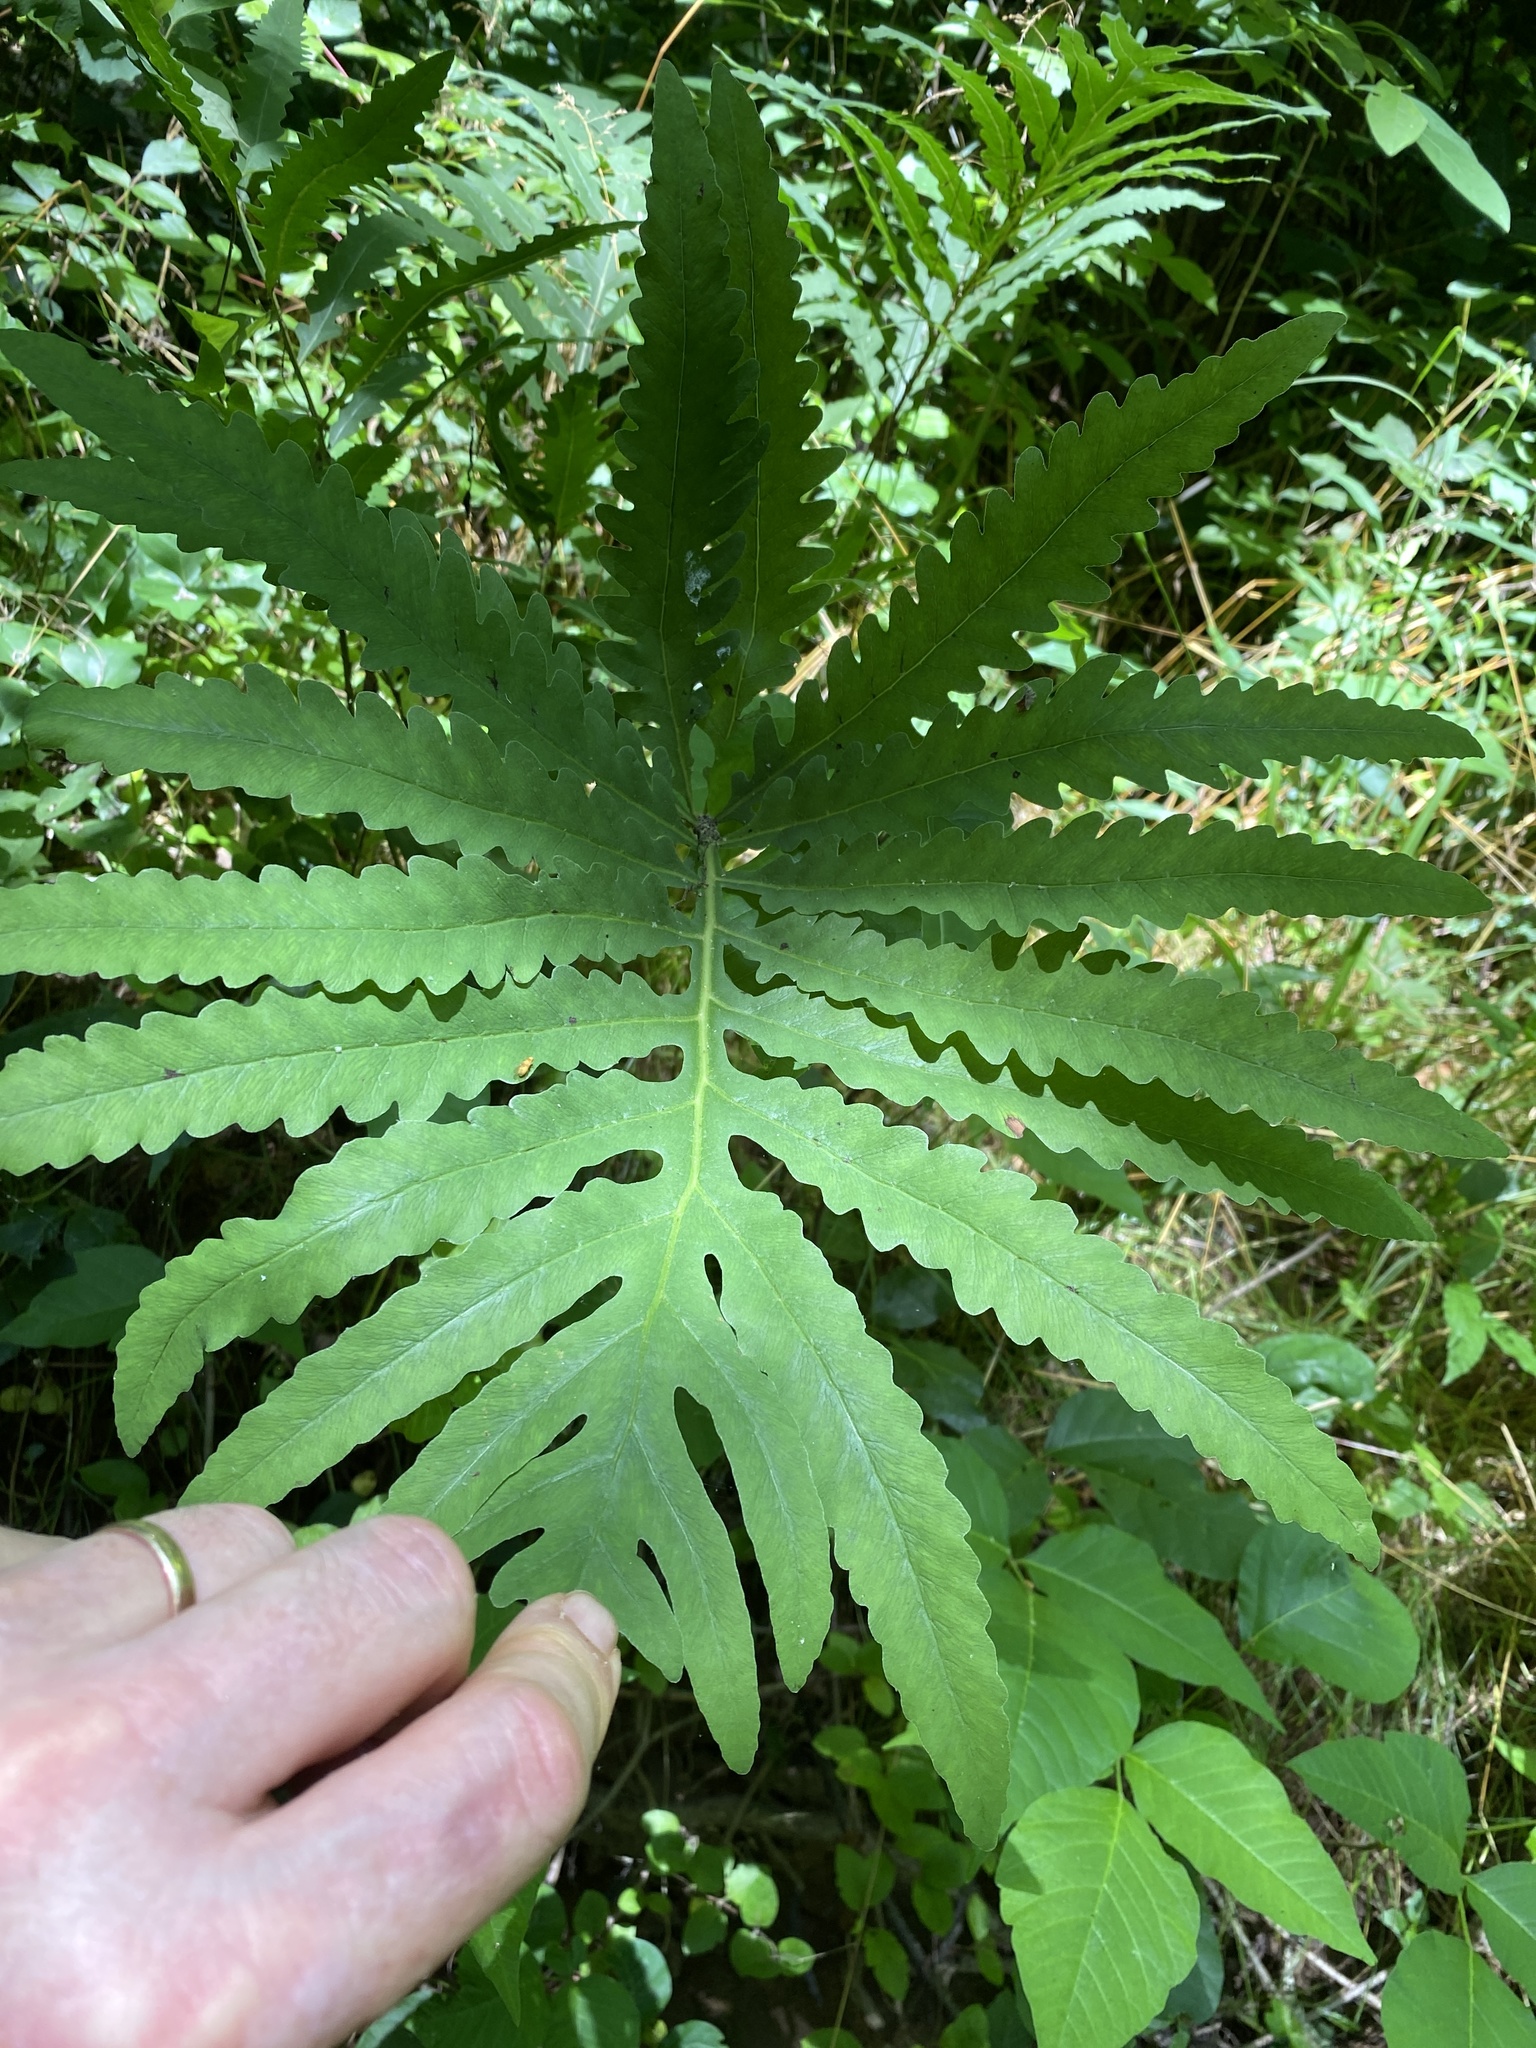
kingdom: Plantae
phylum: Tracheophyta
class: Polypodiopsida
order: Polypodiales
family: Onocleaceae
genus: Onoclea
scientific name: Onoclea sensibilis
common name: Sensitive fern
